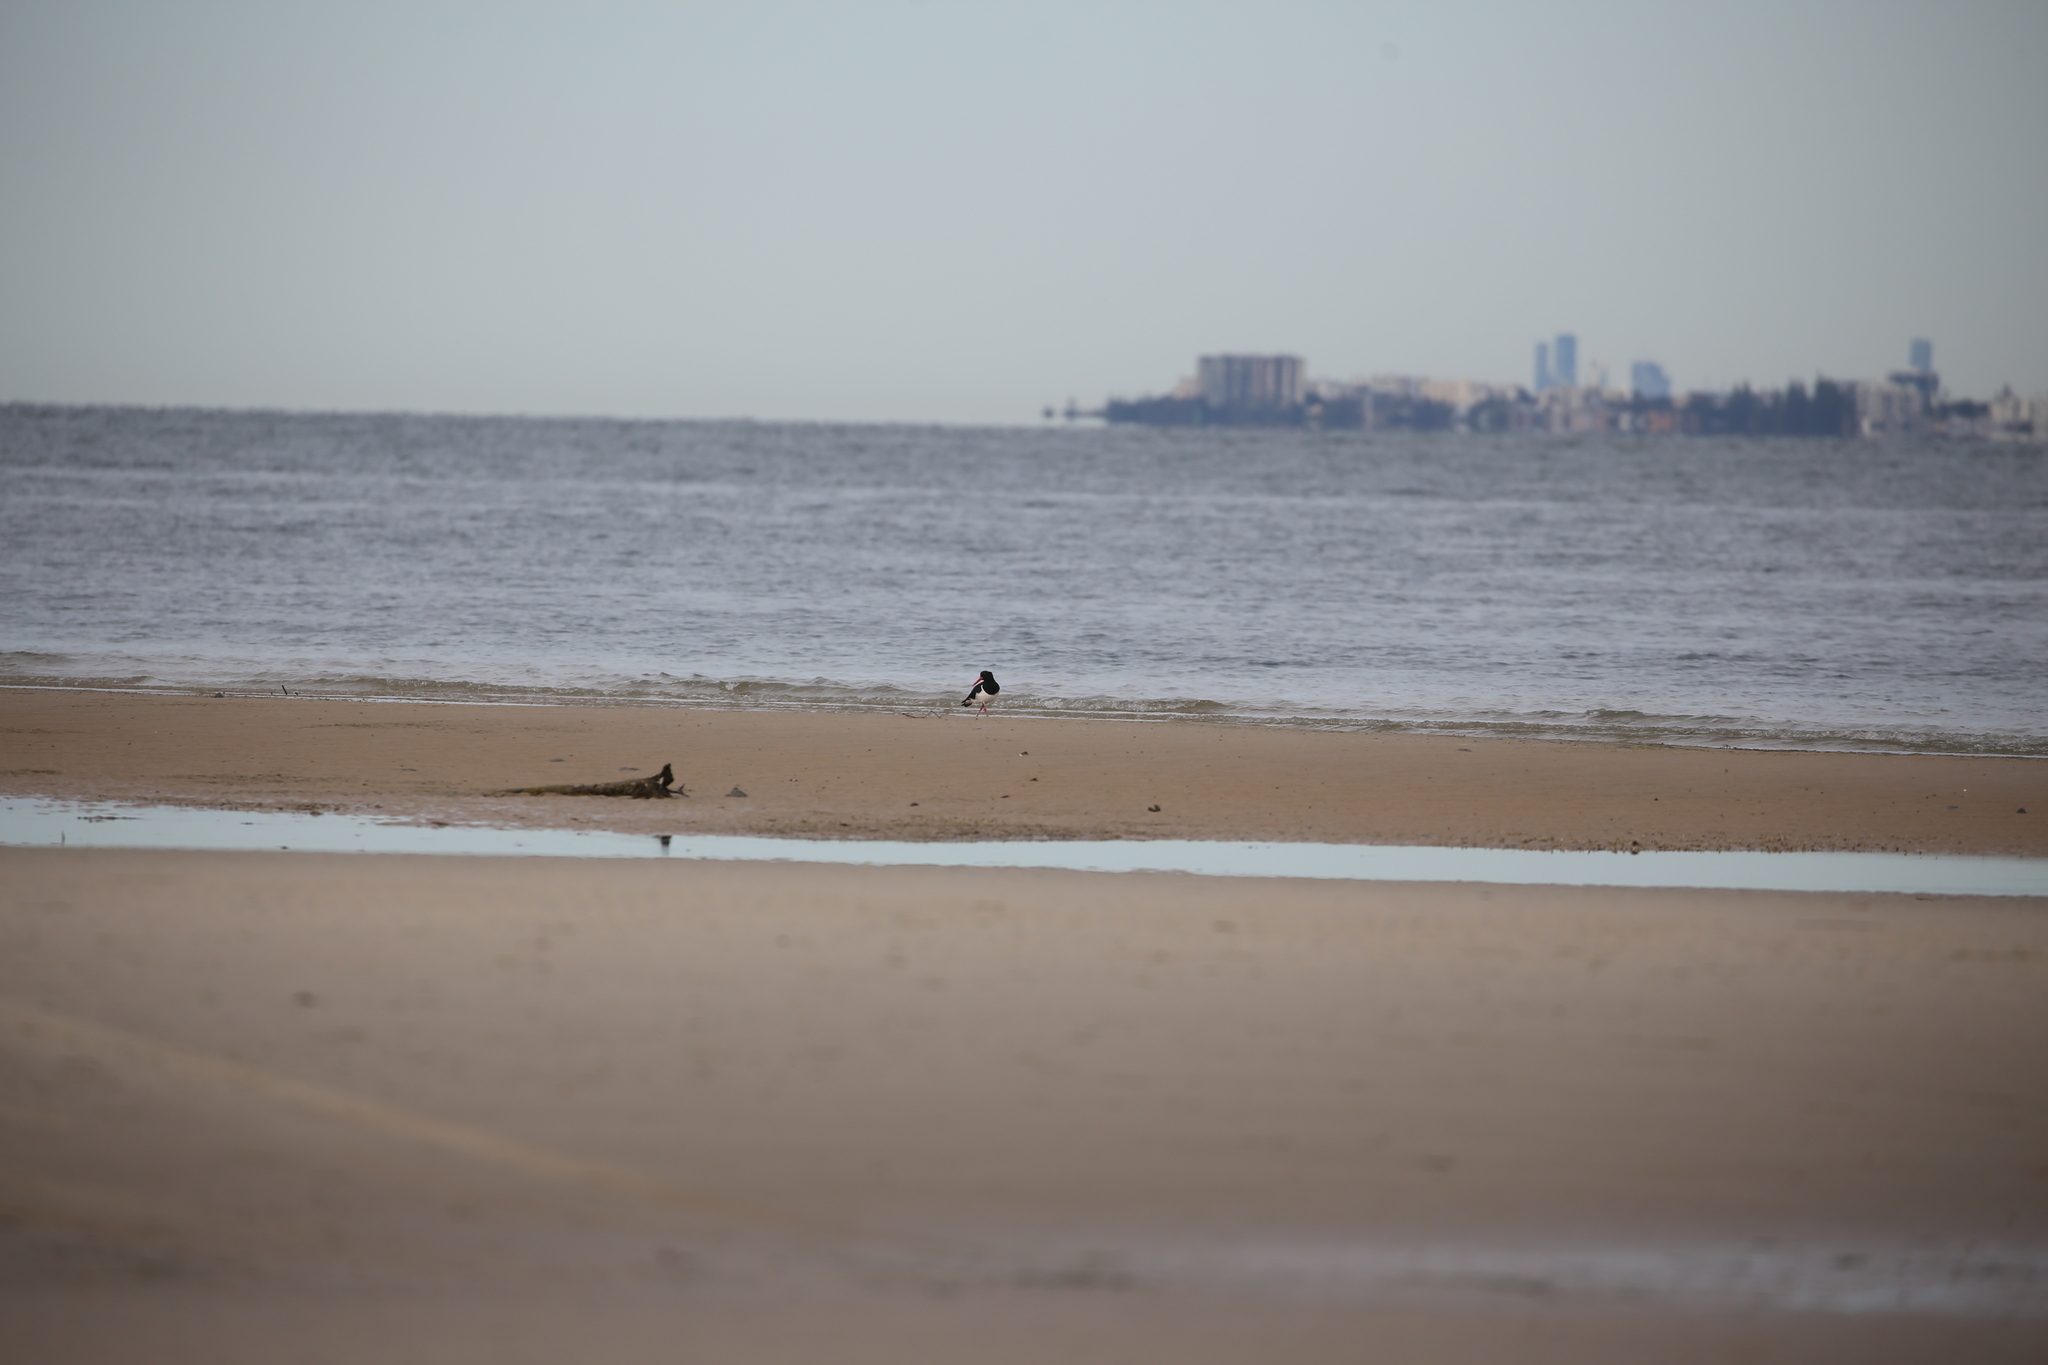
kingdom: Animalia
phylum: Chordata
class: Aves
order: Charadriiformes
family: Haematopodidae
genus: Haematopus
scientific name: Haematopus longirostris
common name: Pied oystercatcher
